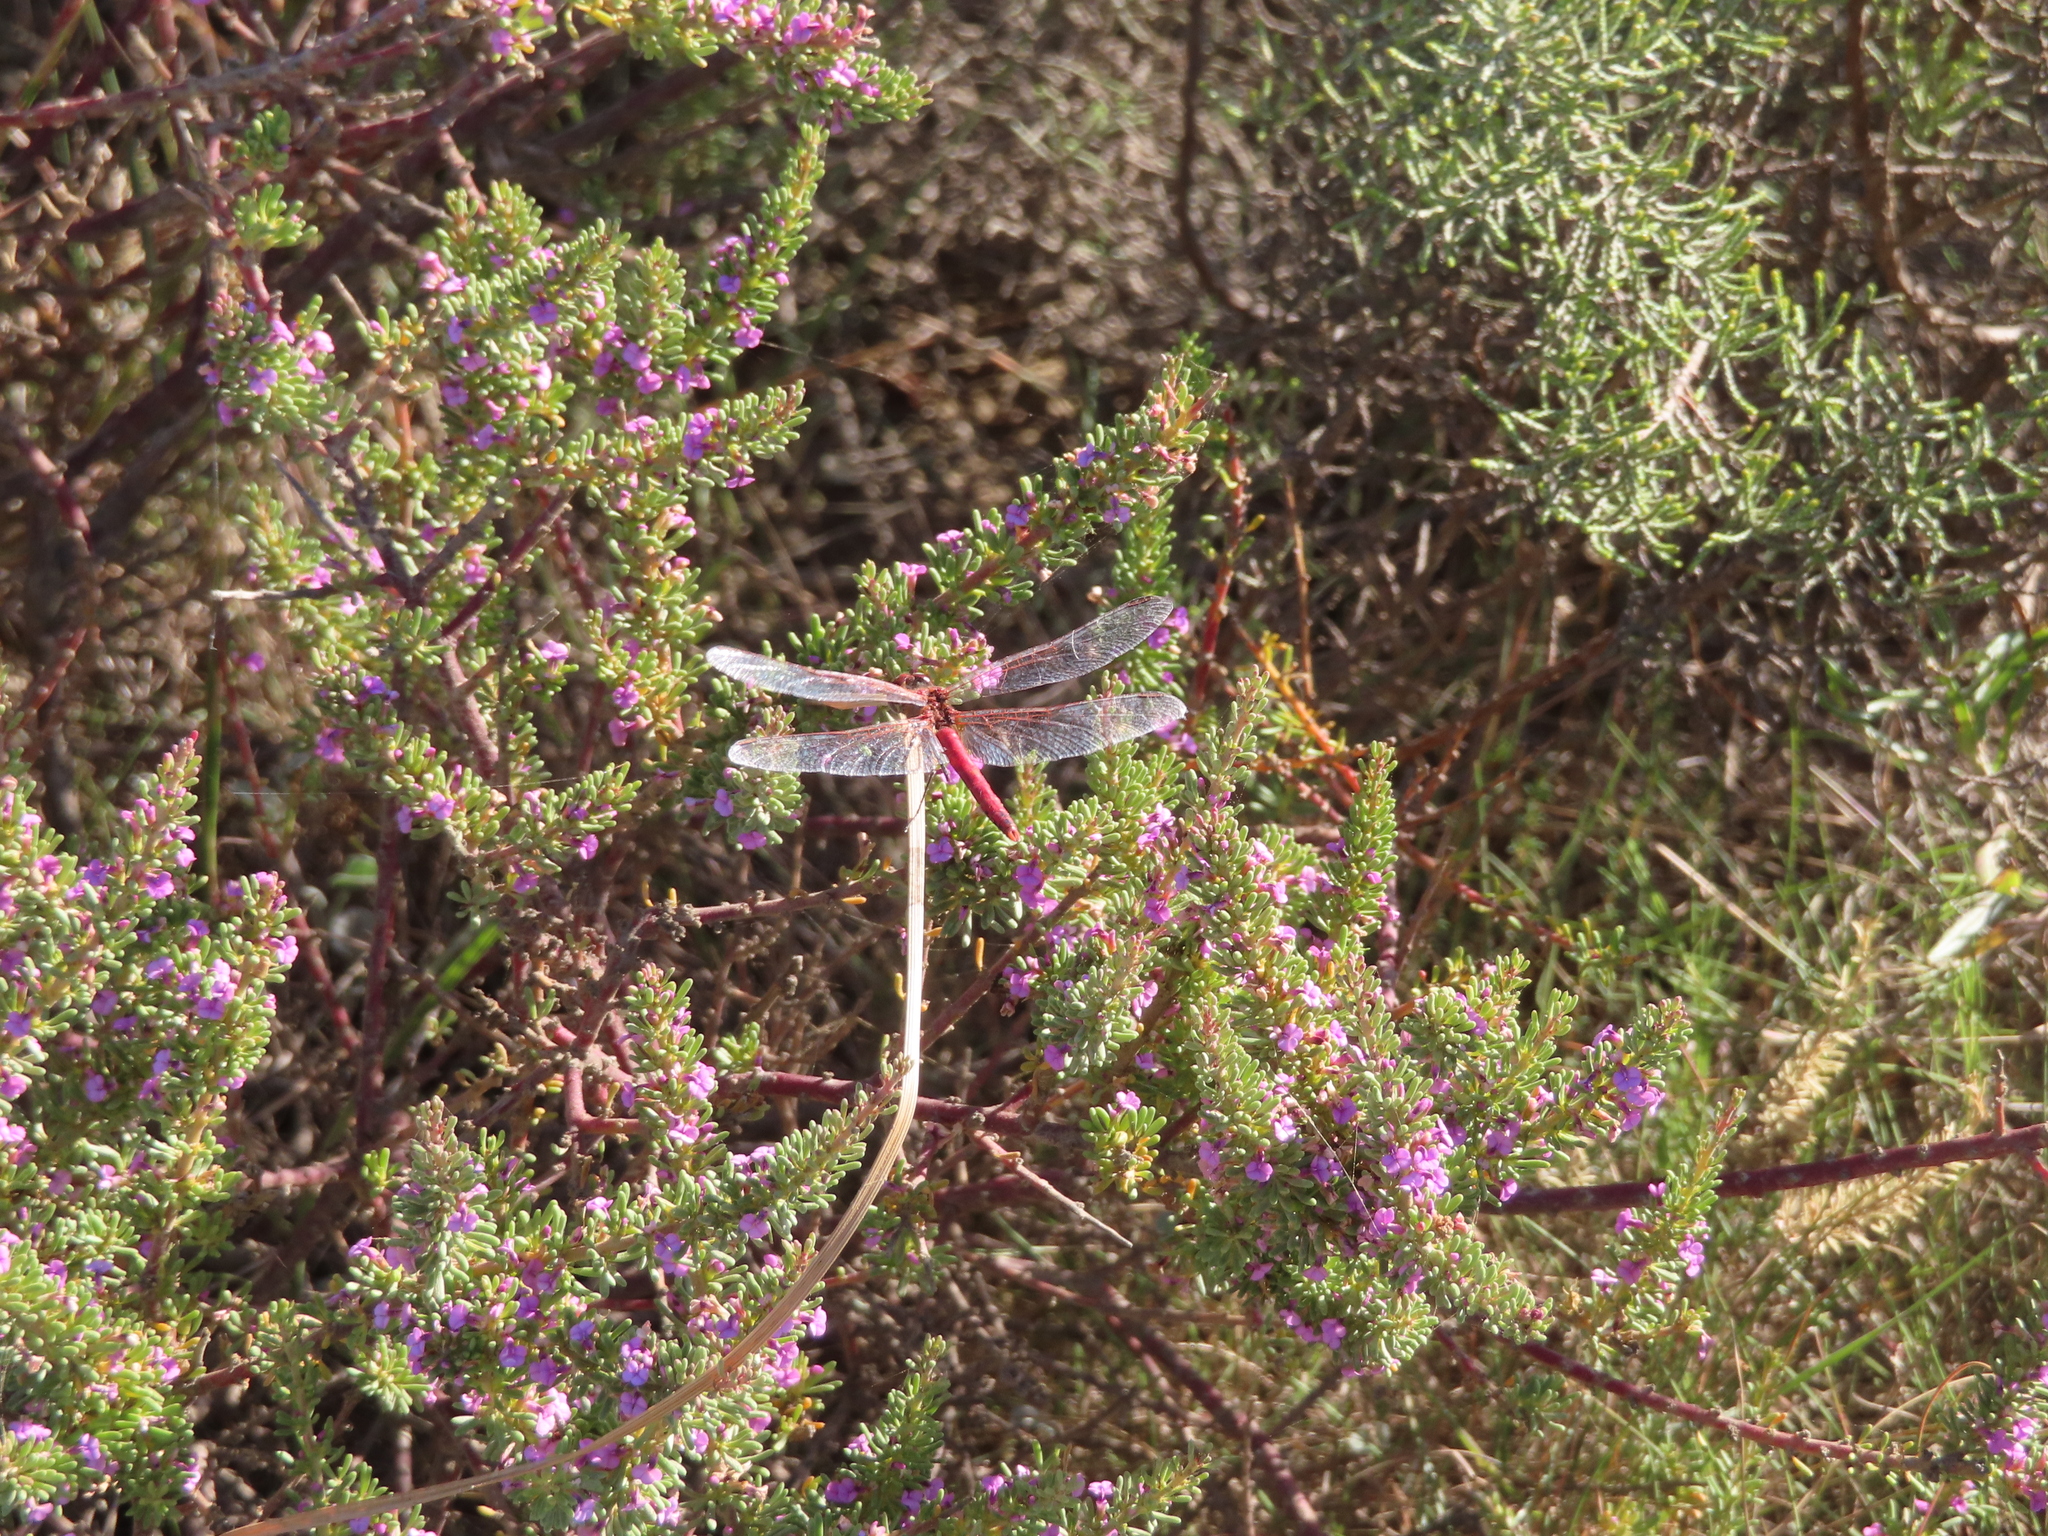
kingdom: Animalia
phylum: Arthropoda
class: Insecta
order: Odonata
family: Libellulidae
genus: Sympetrum
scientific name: Sympetrum fonscolombii
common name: Red-veined darter
